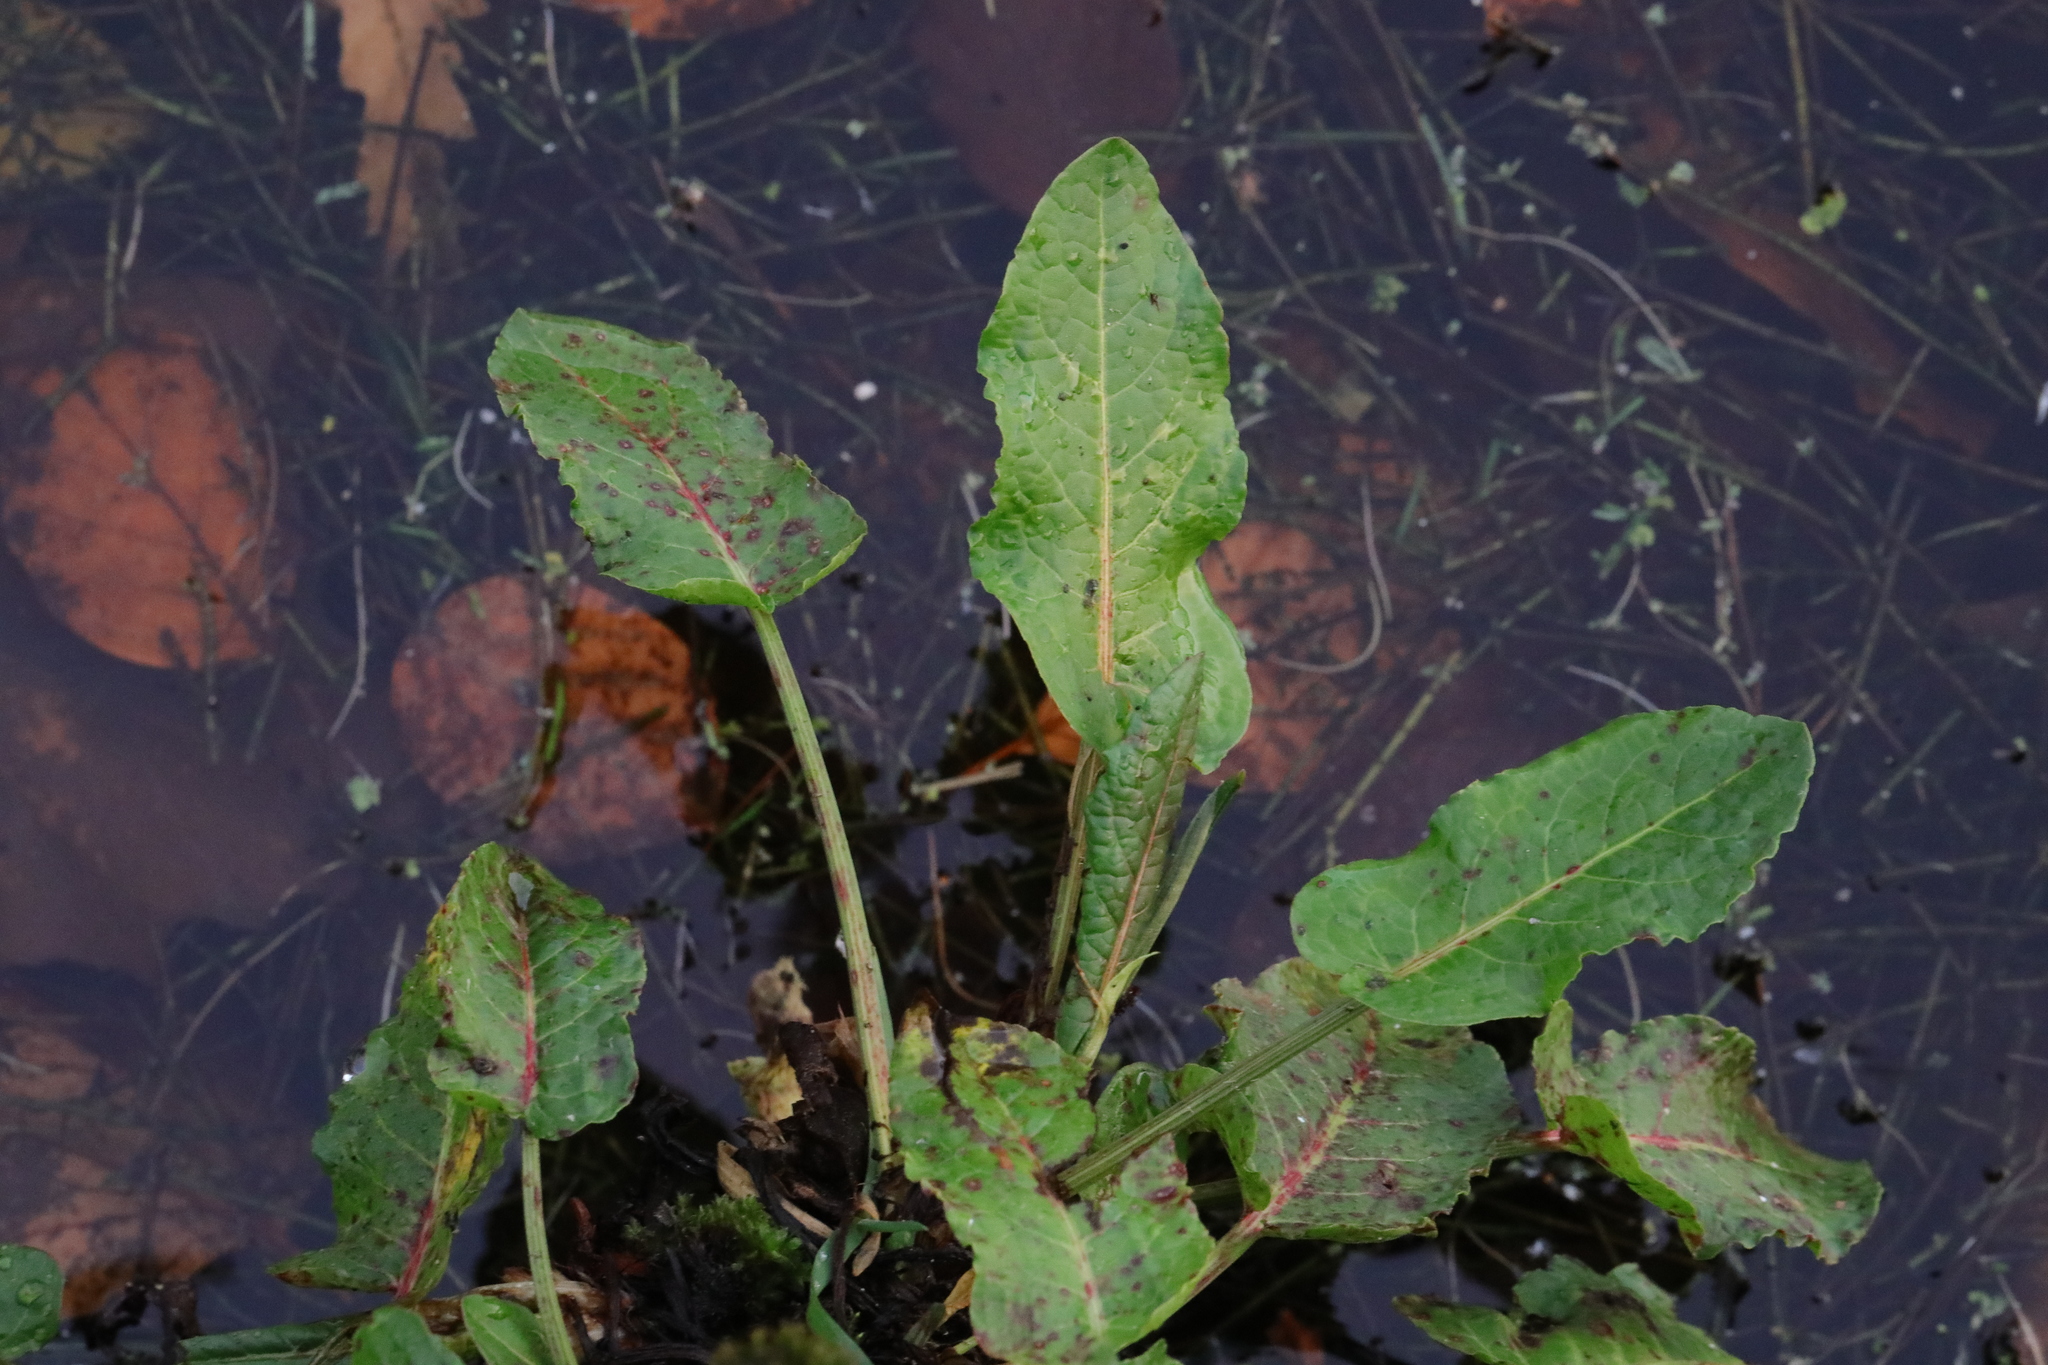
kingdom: Plantae
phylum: Tracheophyta
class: Magnoliopsida
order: Caryophyllales
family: Polygonaceae
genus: Rumex
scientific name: Rumex obtusifolius
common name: Bitter dock
